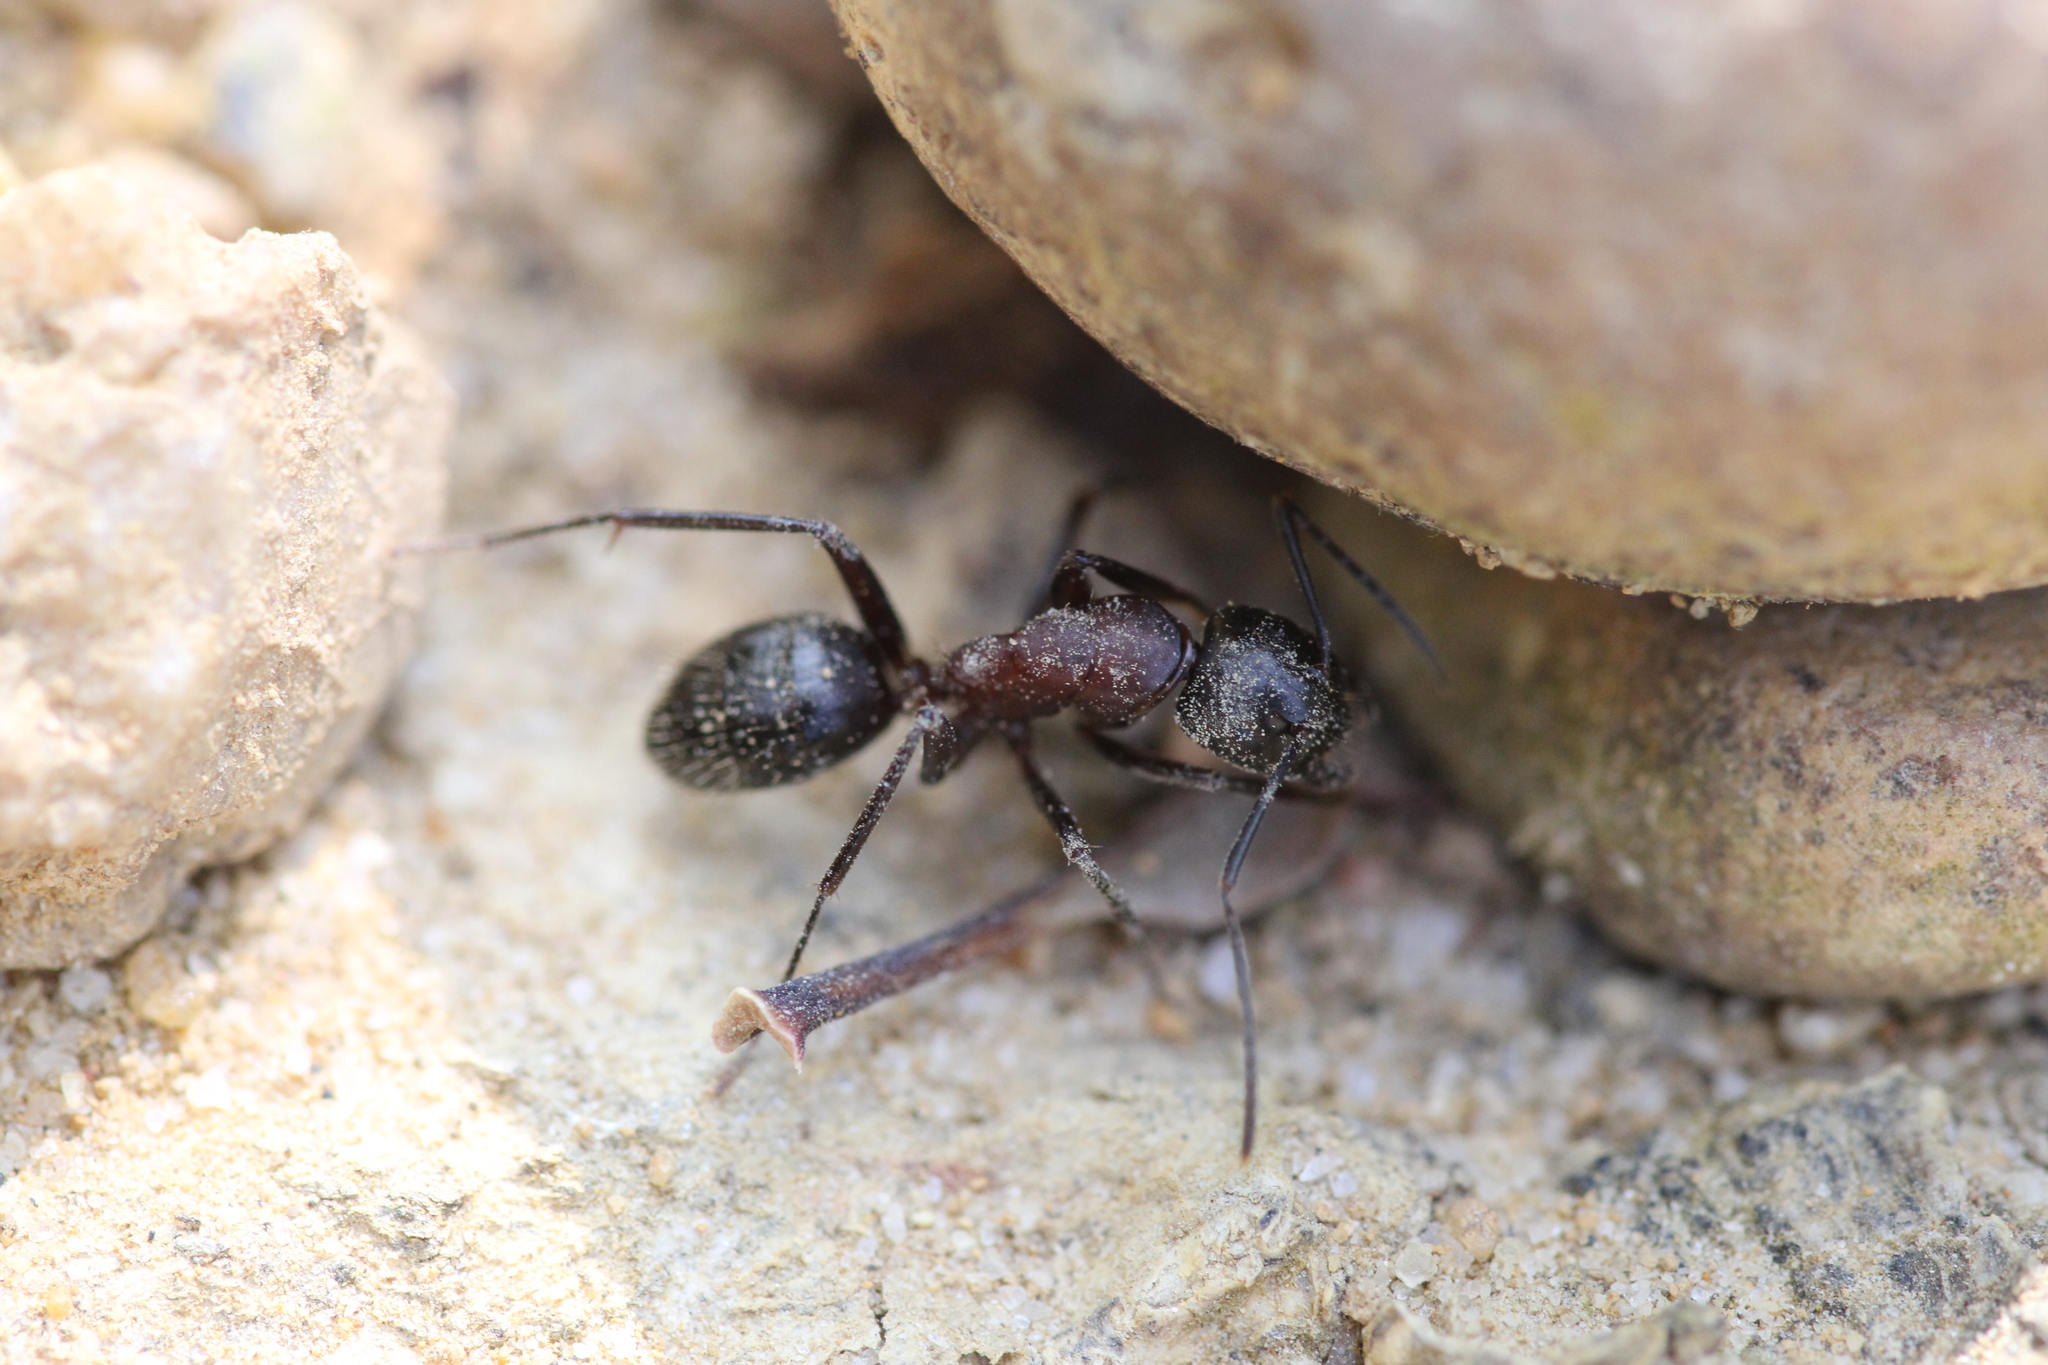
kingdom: Animalia
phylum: Arthropoda
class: Insecta
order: Hymenoptera
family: Formicidae
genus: Camponotus
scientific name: Camponotus herculeanus
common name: Hercules ant
